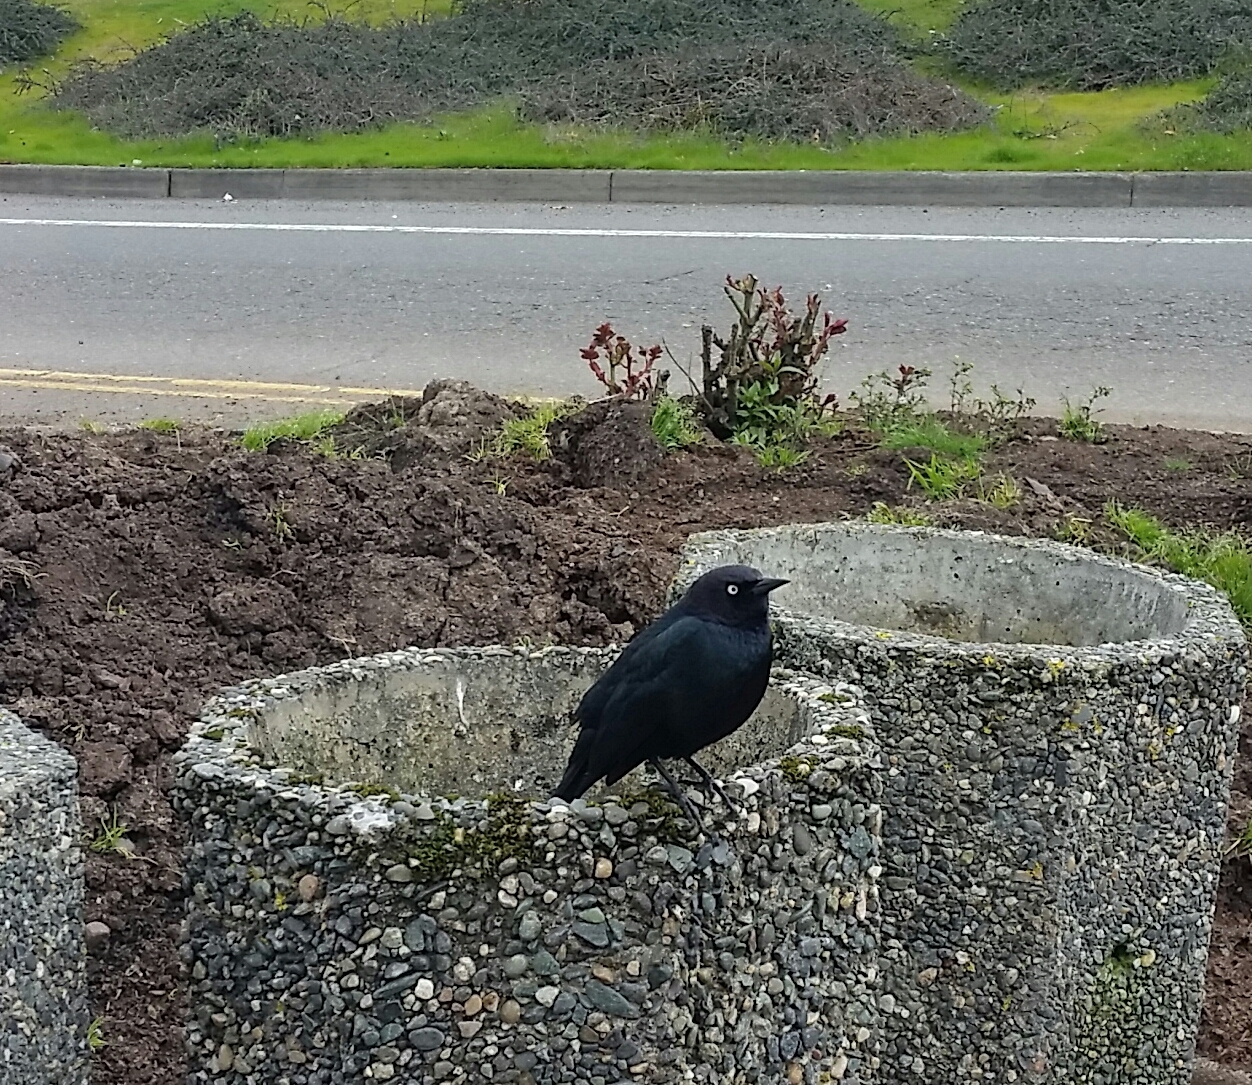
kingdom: Animalia
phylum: Chordata
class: Aves
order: Passeriformes
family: Icteridae
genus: Euphagus
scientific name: Euphagus cyanocephalus
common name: Brewer's blackbird
